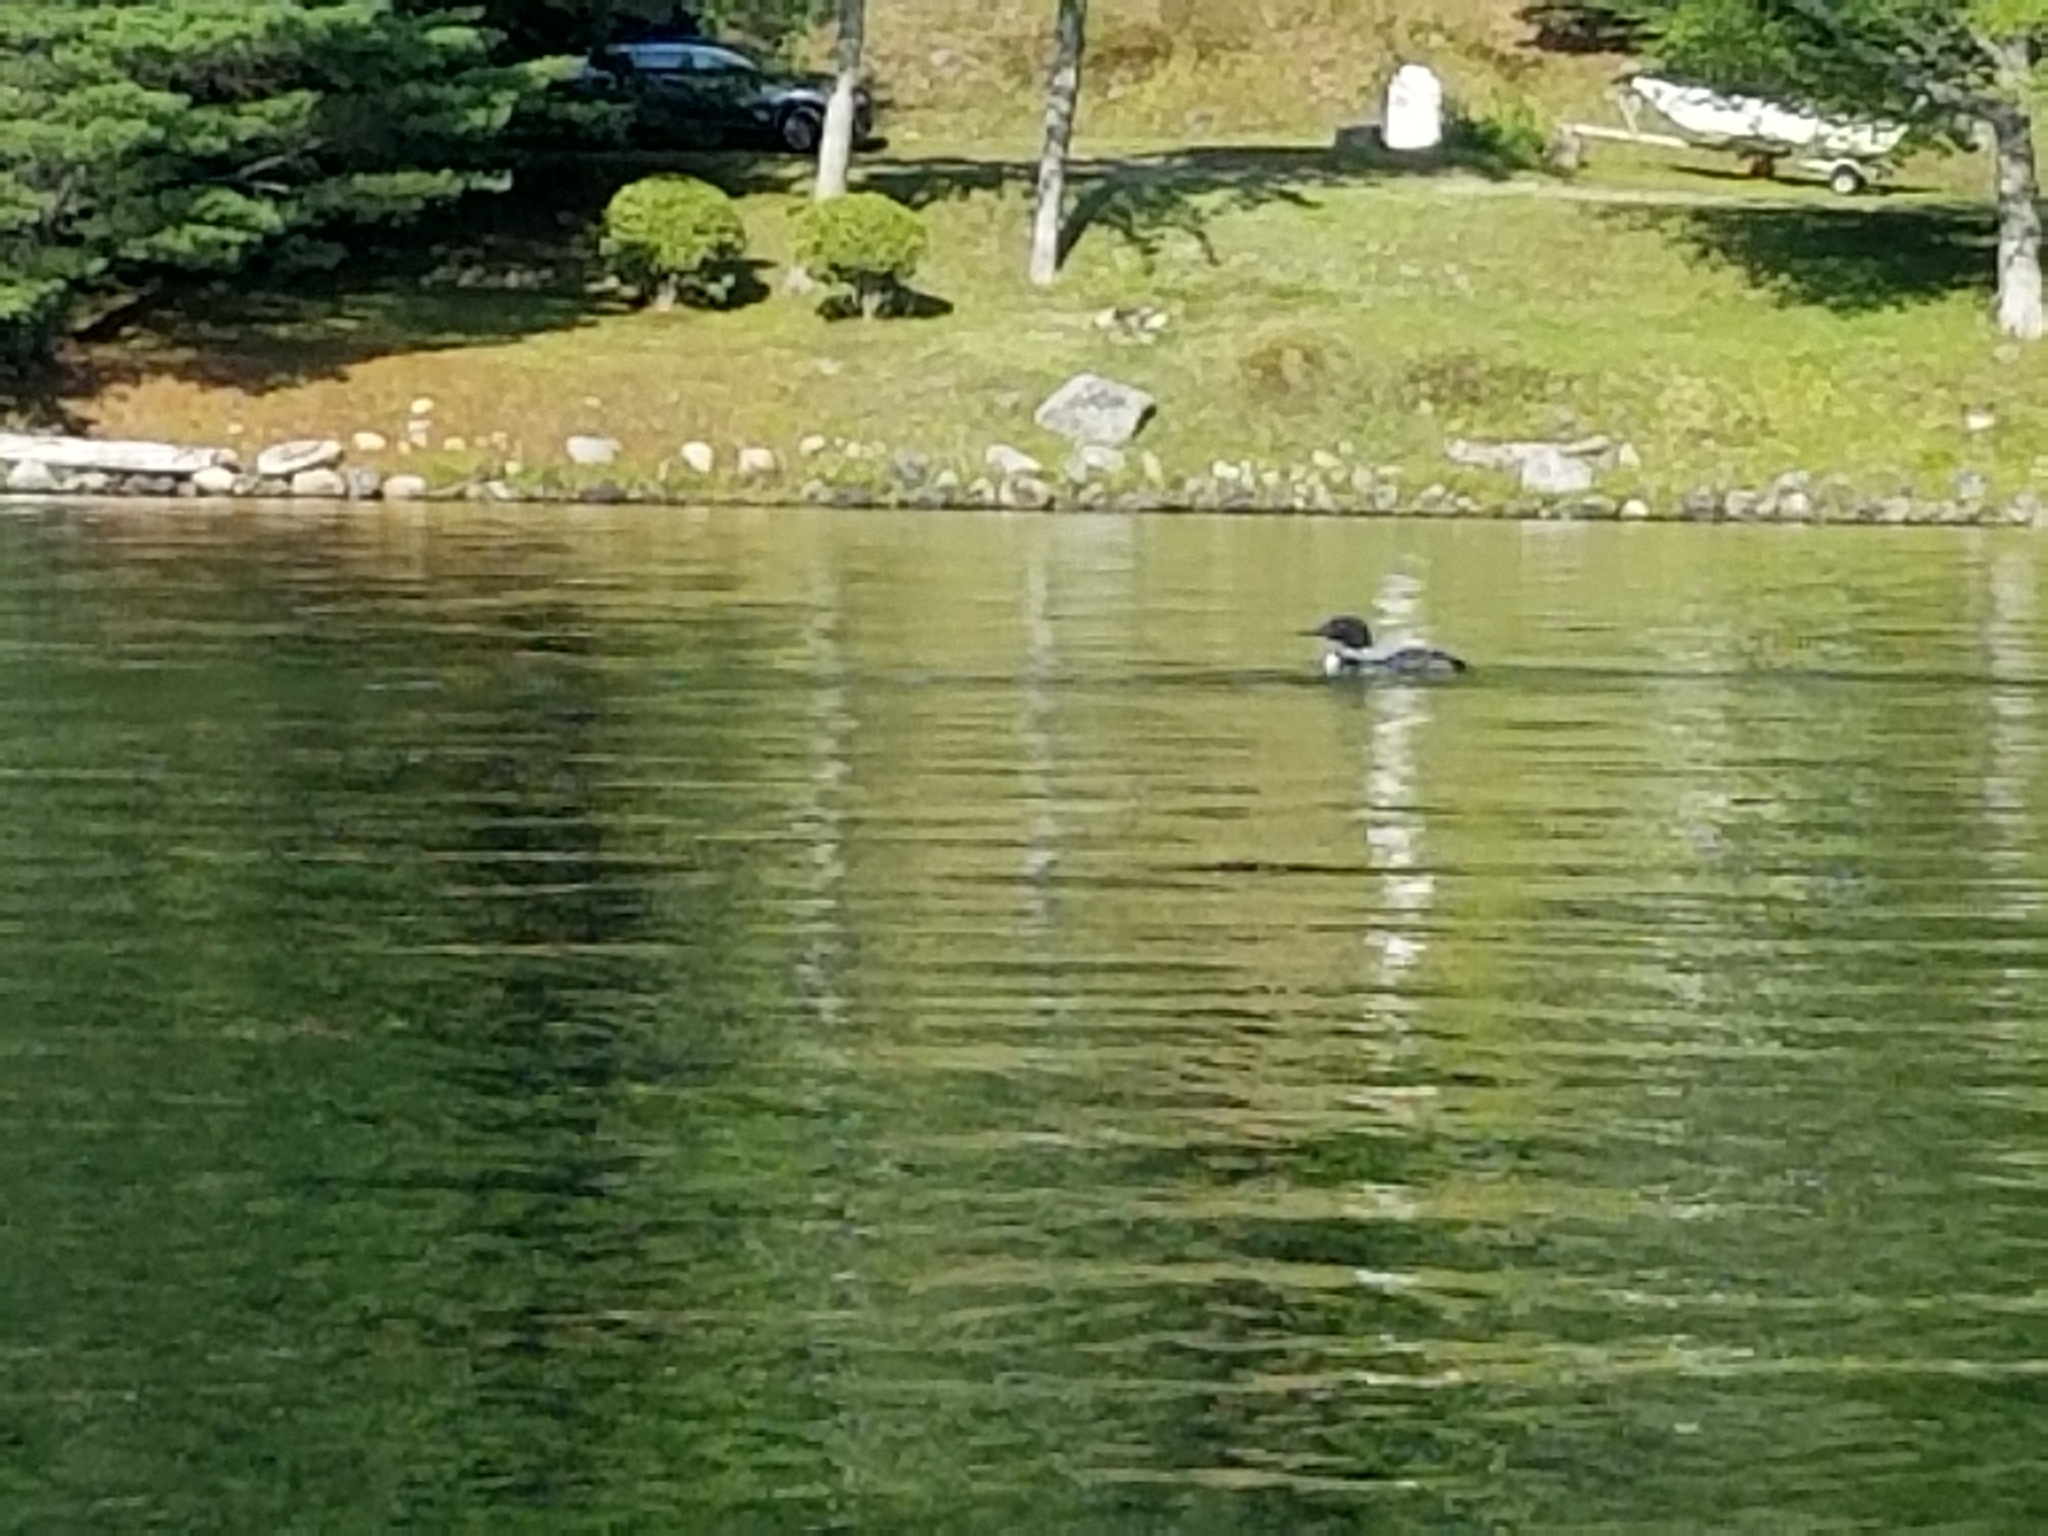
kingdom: Animalia
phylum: Chordata
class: Aves
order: Gaviiformes
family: Gaviidae
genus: Gavia
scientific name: Gavia immer
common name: Common loon
